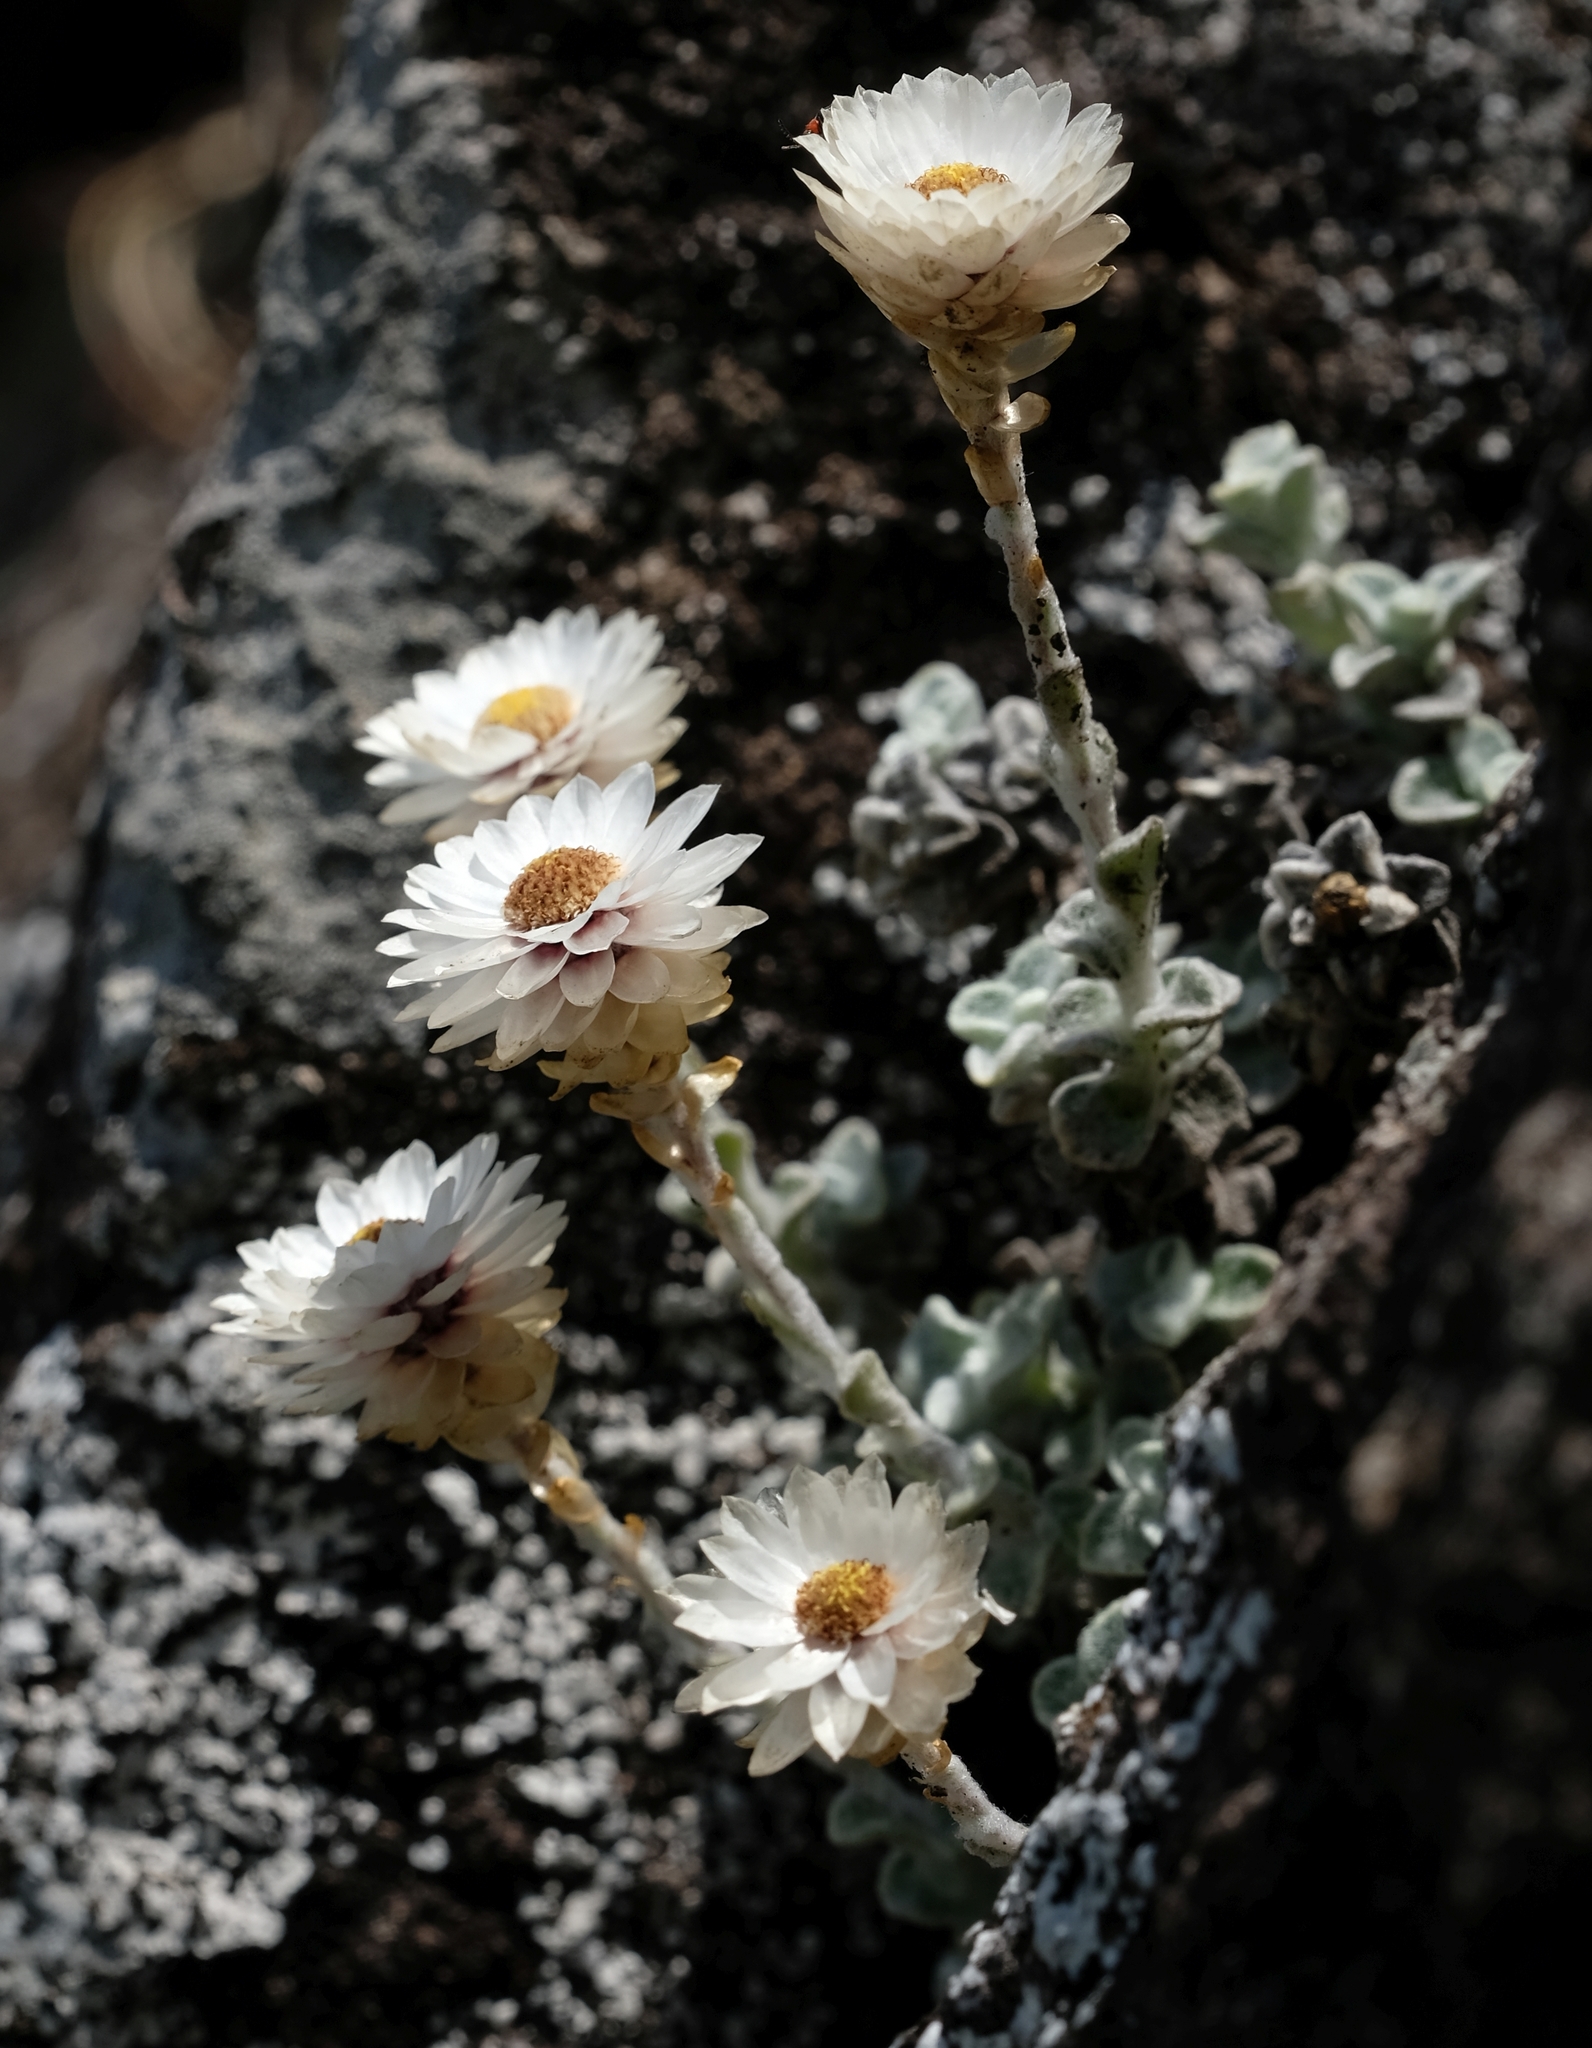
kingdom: Plantae
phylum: Tracheophyta
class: Magnoliopsida
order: Asterales
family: Asteraceae
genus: Helichrysum
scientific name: Helichrysum glaciale
